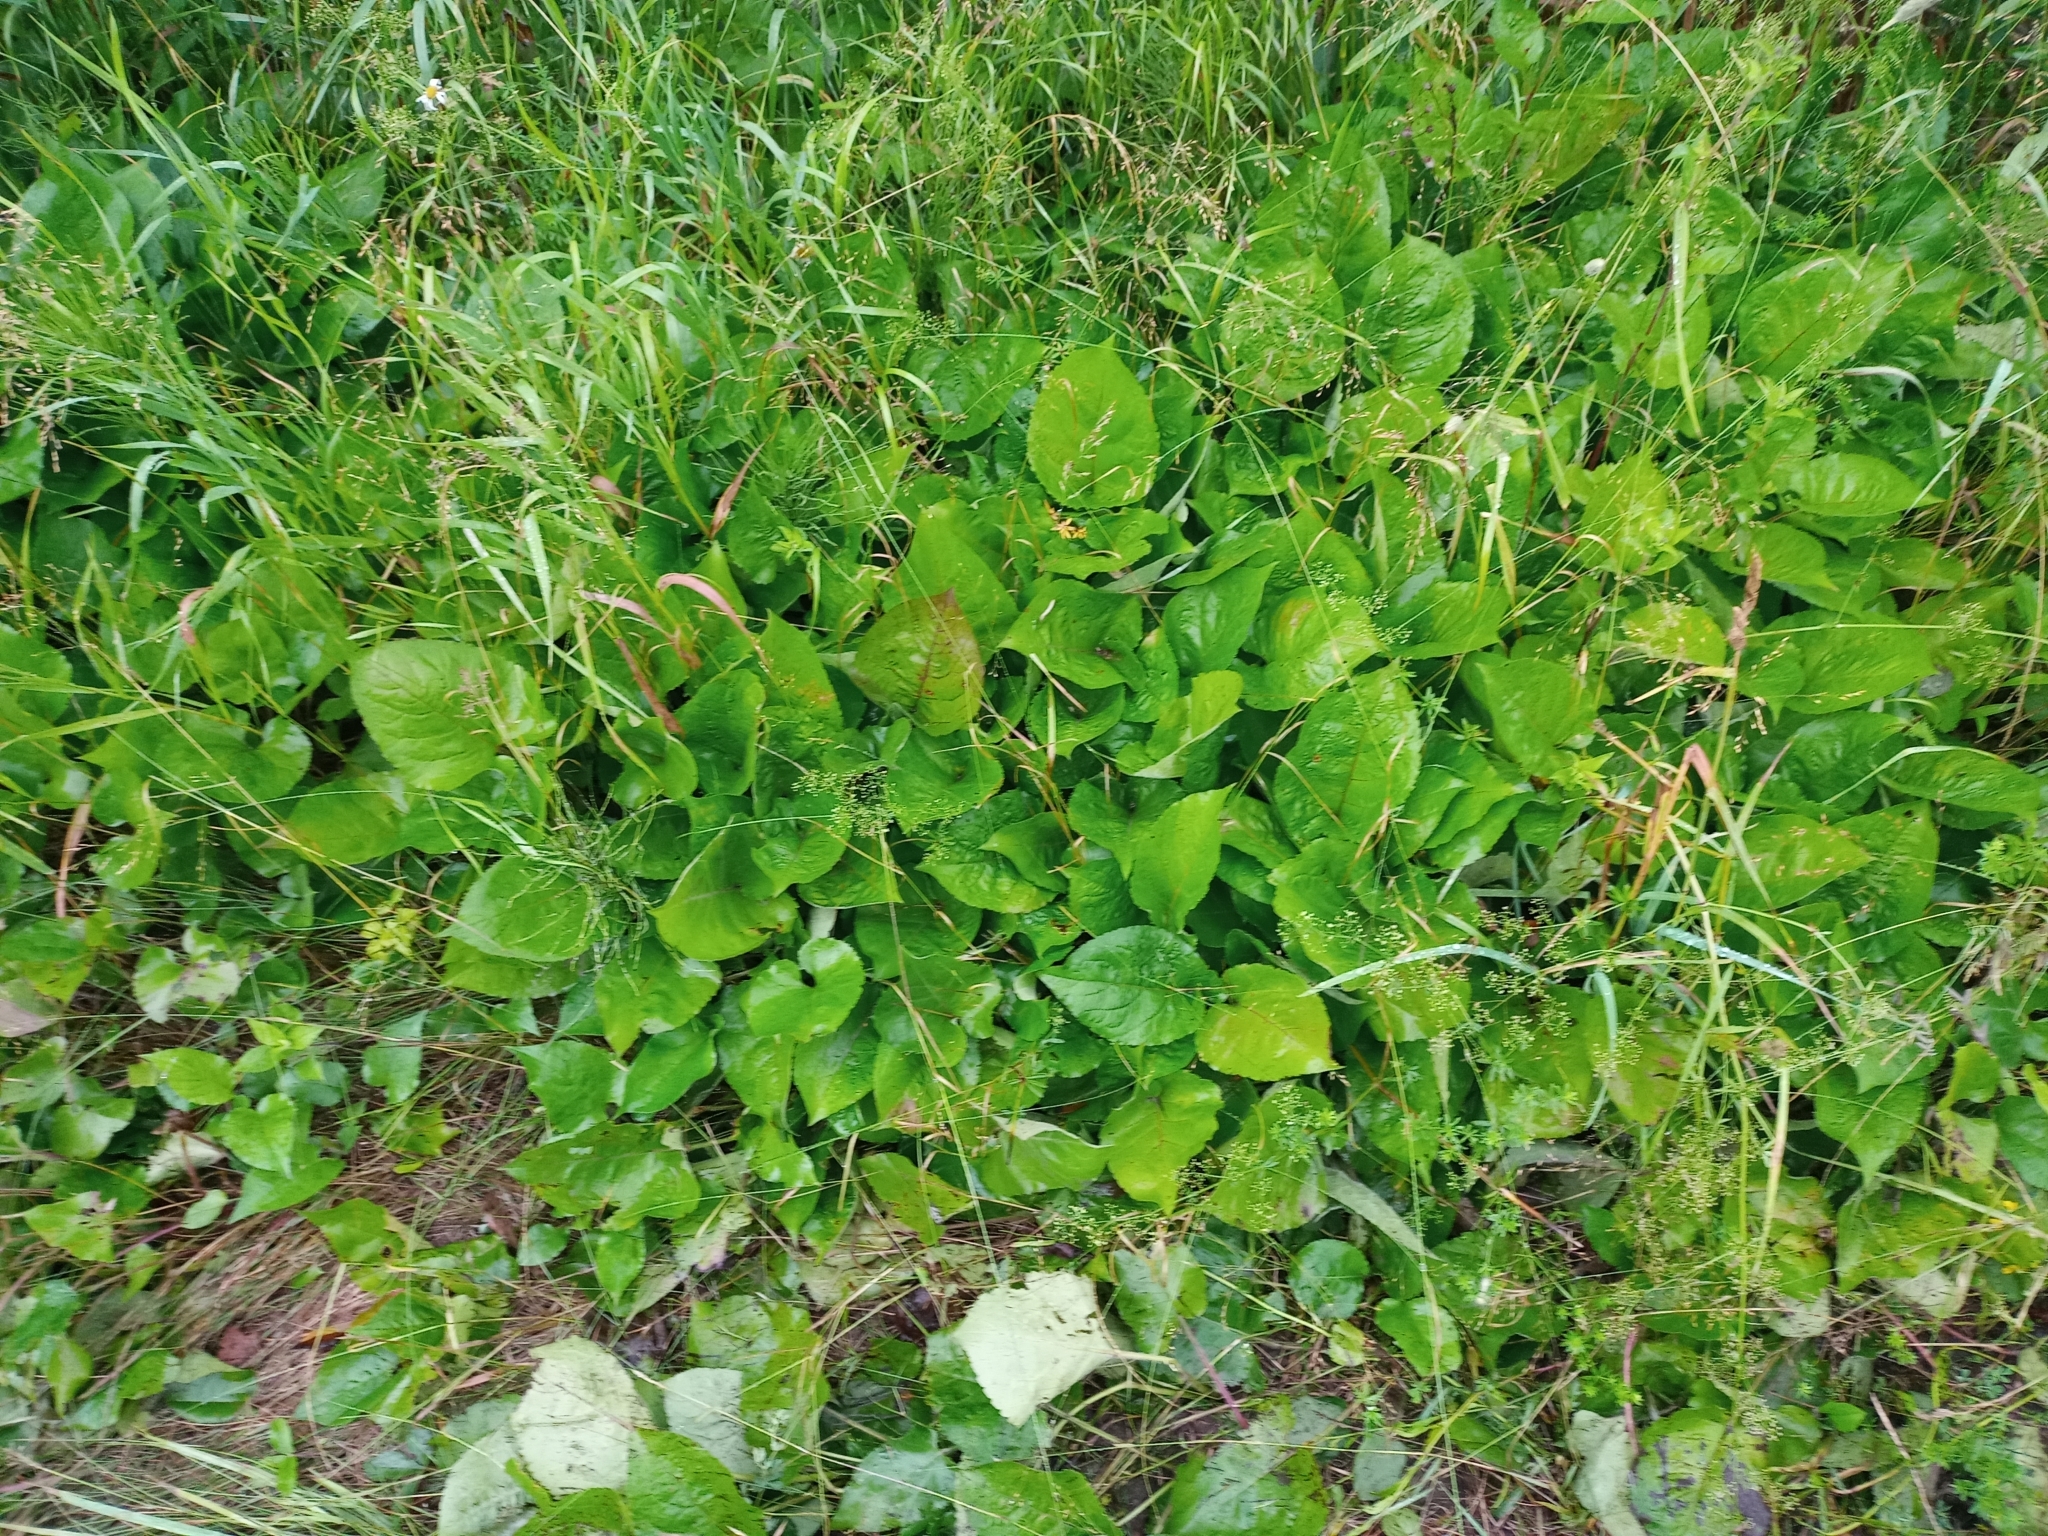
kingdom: Plantae
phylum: Tracheophyta
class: Magnoliopsida
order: Asterales
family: Asteraceae
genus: Eurybia
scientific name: Eurybia macrophylla
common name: Big-leaved aster
